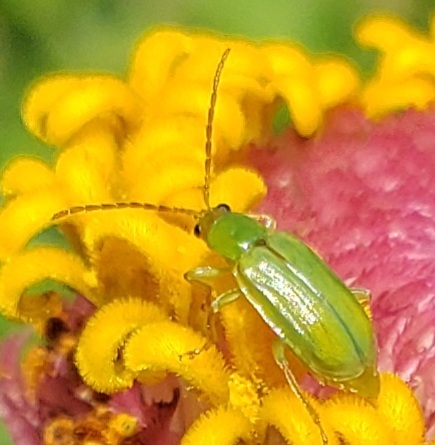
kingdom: Animalia
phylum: Arthropoda
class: Insecta
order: Coleoptera
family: Chrysomelidae
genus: Diabrotica
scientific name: Diabrotica barberi
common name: Northern corn rootworm
